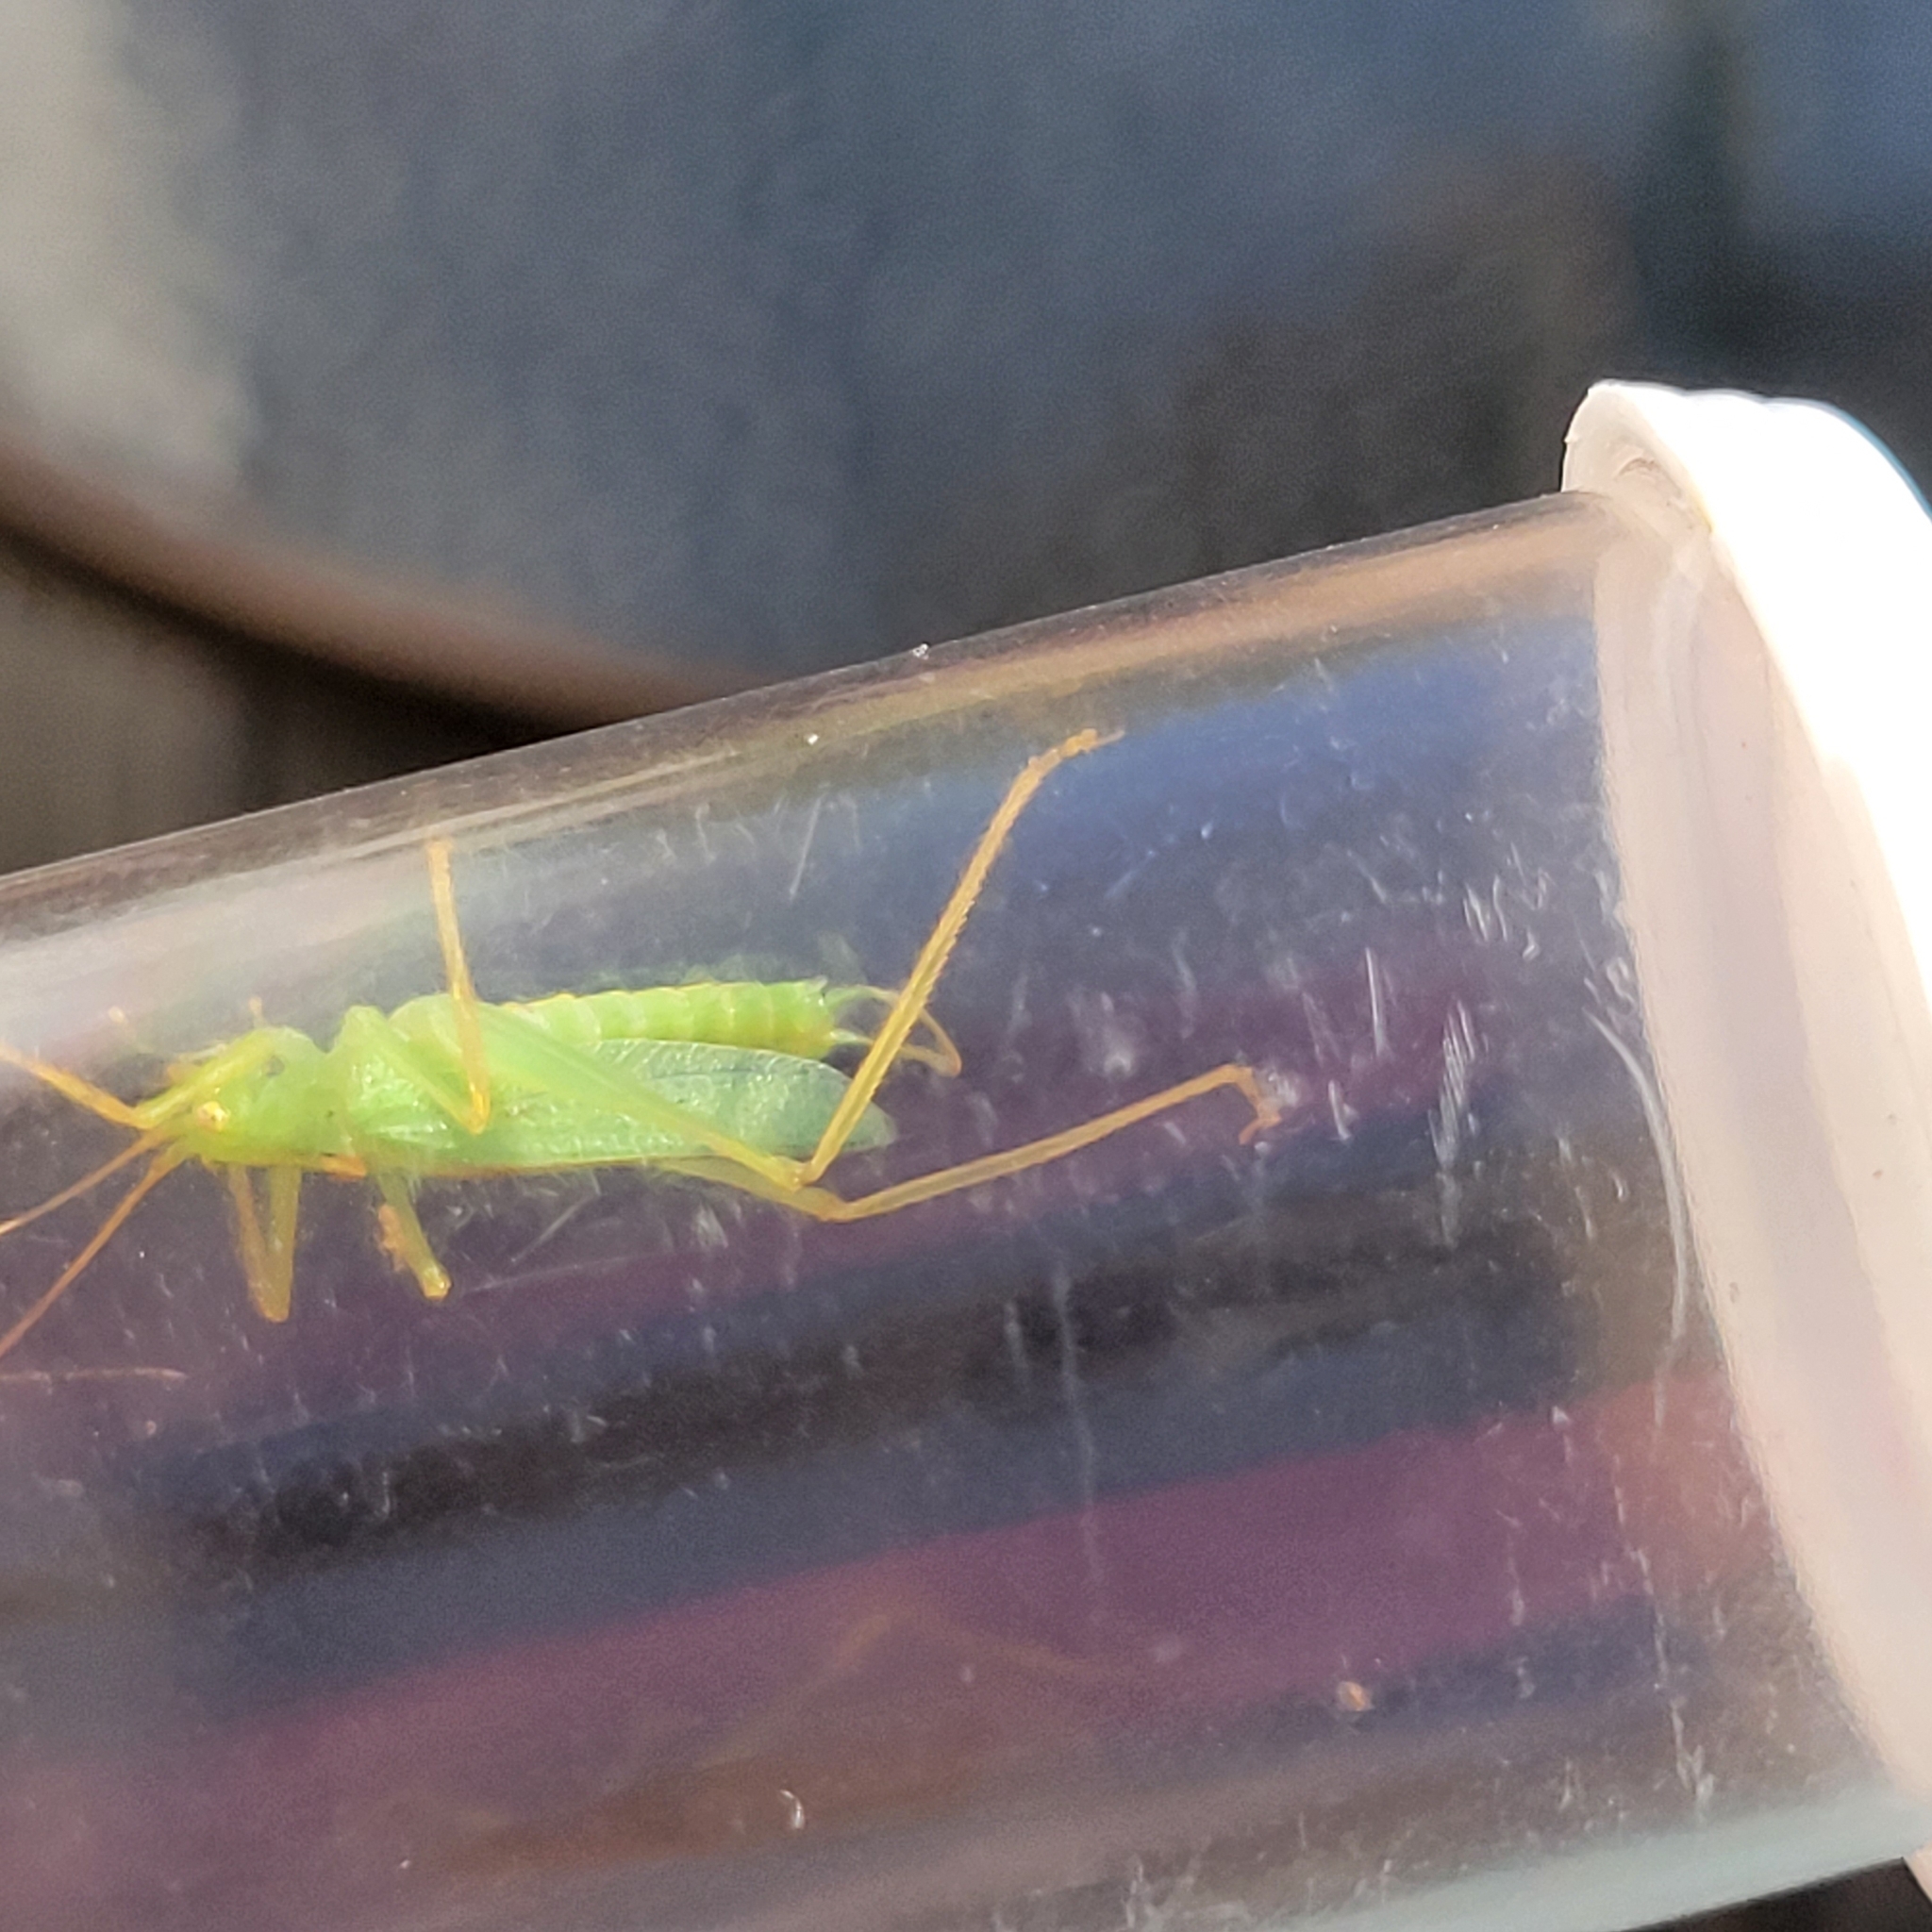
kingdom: Animalia
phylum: Arthropoda
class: Insecta
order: Orthoptera
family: Tettigoniidae
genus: Meconema
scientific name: Meconema thalassinum
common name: Oak bush-cricket
